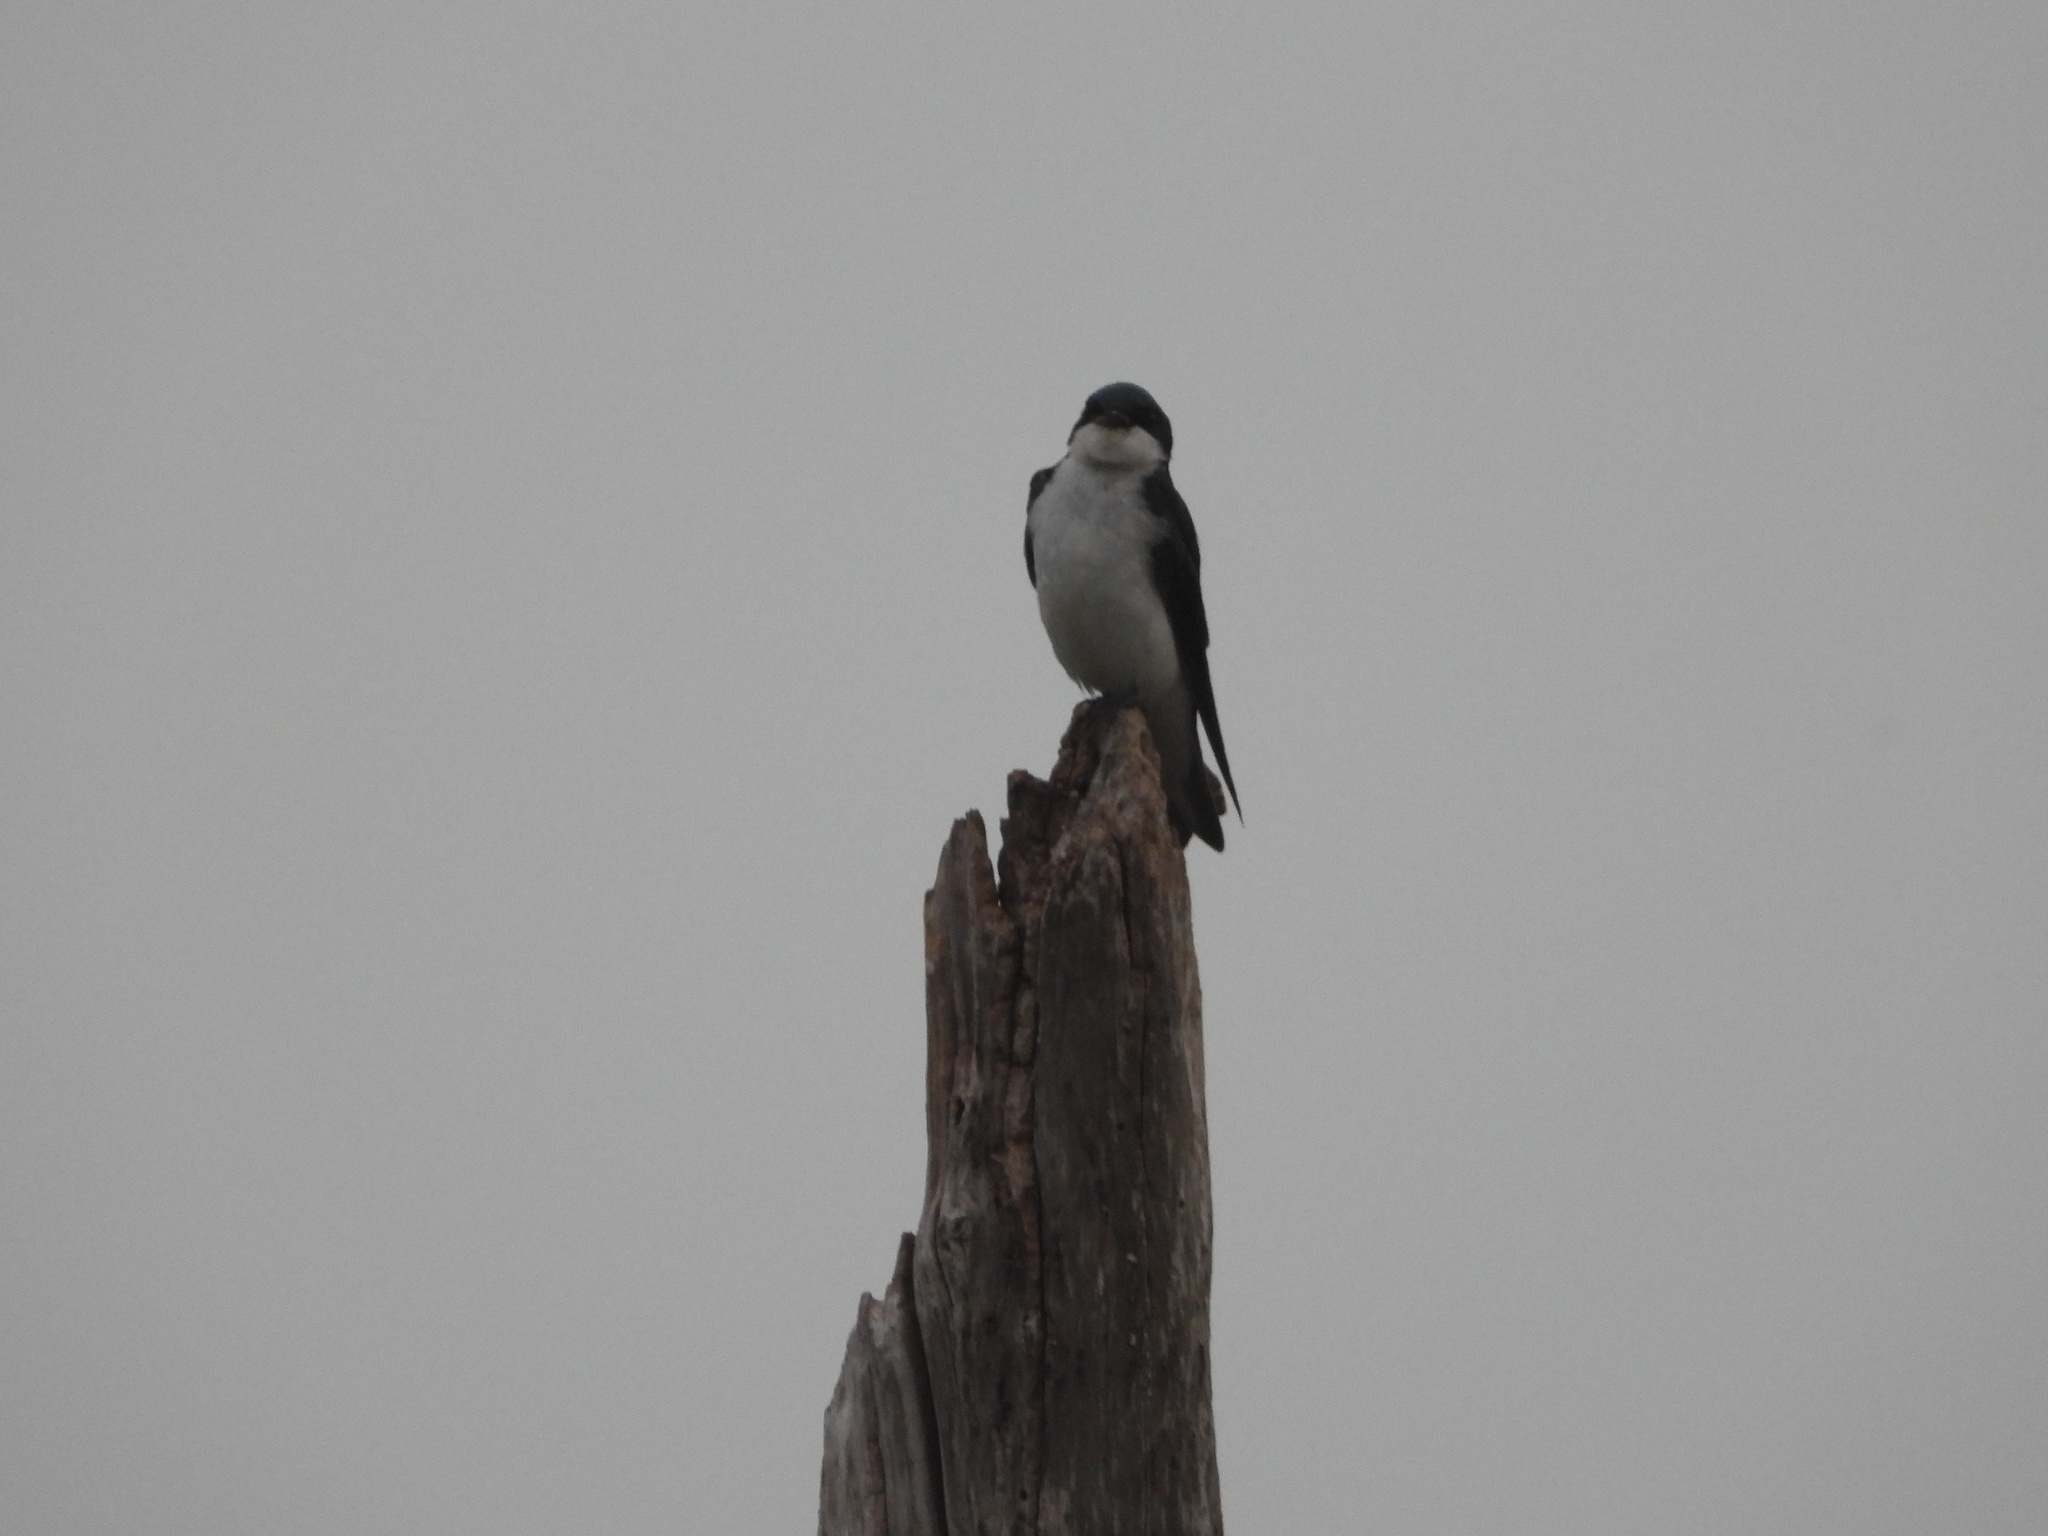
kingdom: Animalia
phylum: Chordata
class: Aves
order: Passeriformes
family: Hirundinidae
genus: Tachycineta
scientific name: Tachycineta bicolor
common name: Tree swallow
